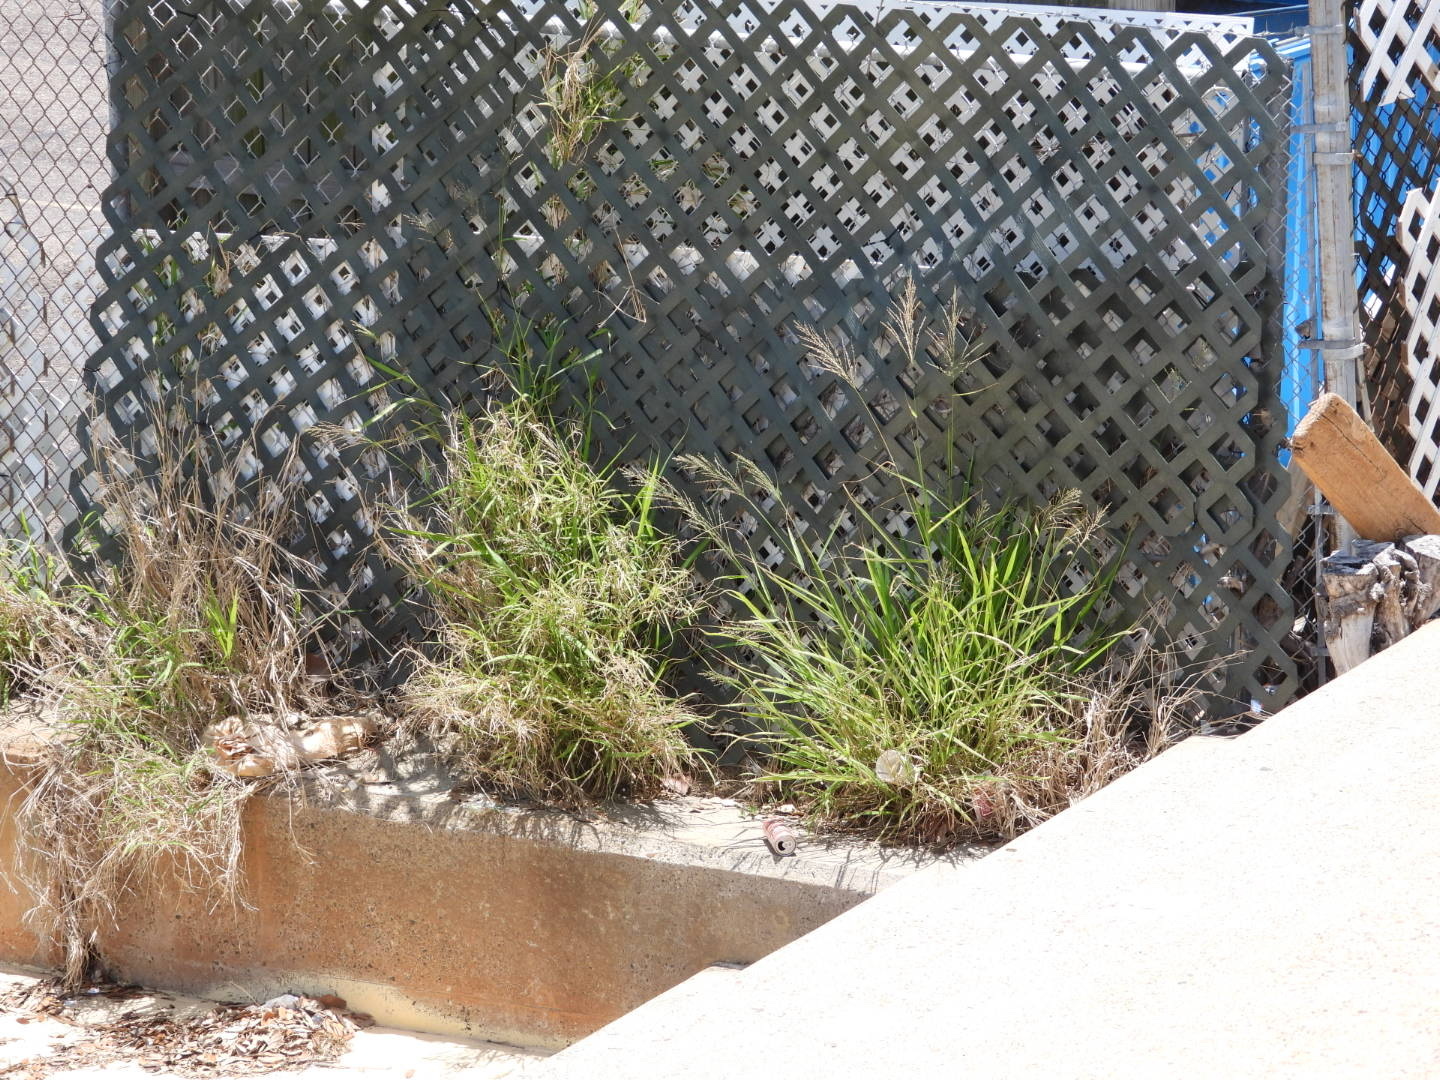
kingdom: Plantae
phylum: Tracheophyta
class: Liliopsida
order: Poales
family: Poaceae
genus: Megathyrsus
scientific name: Megathyrsus maximus
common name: Guineagrass
